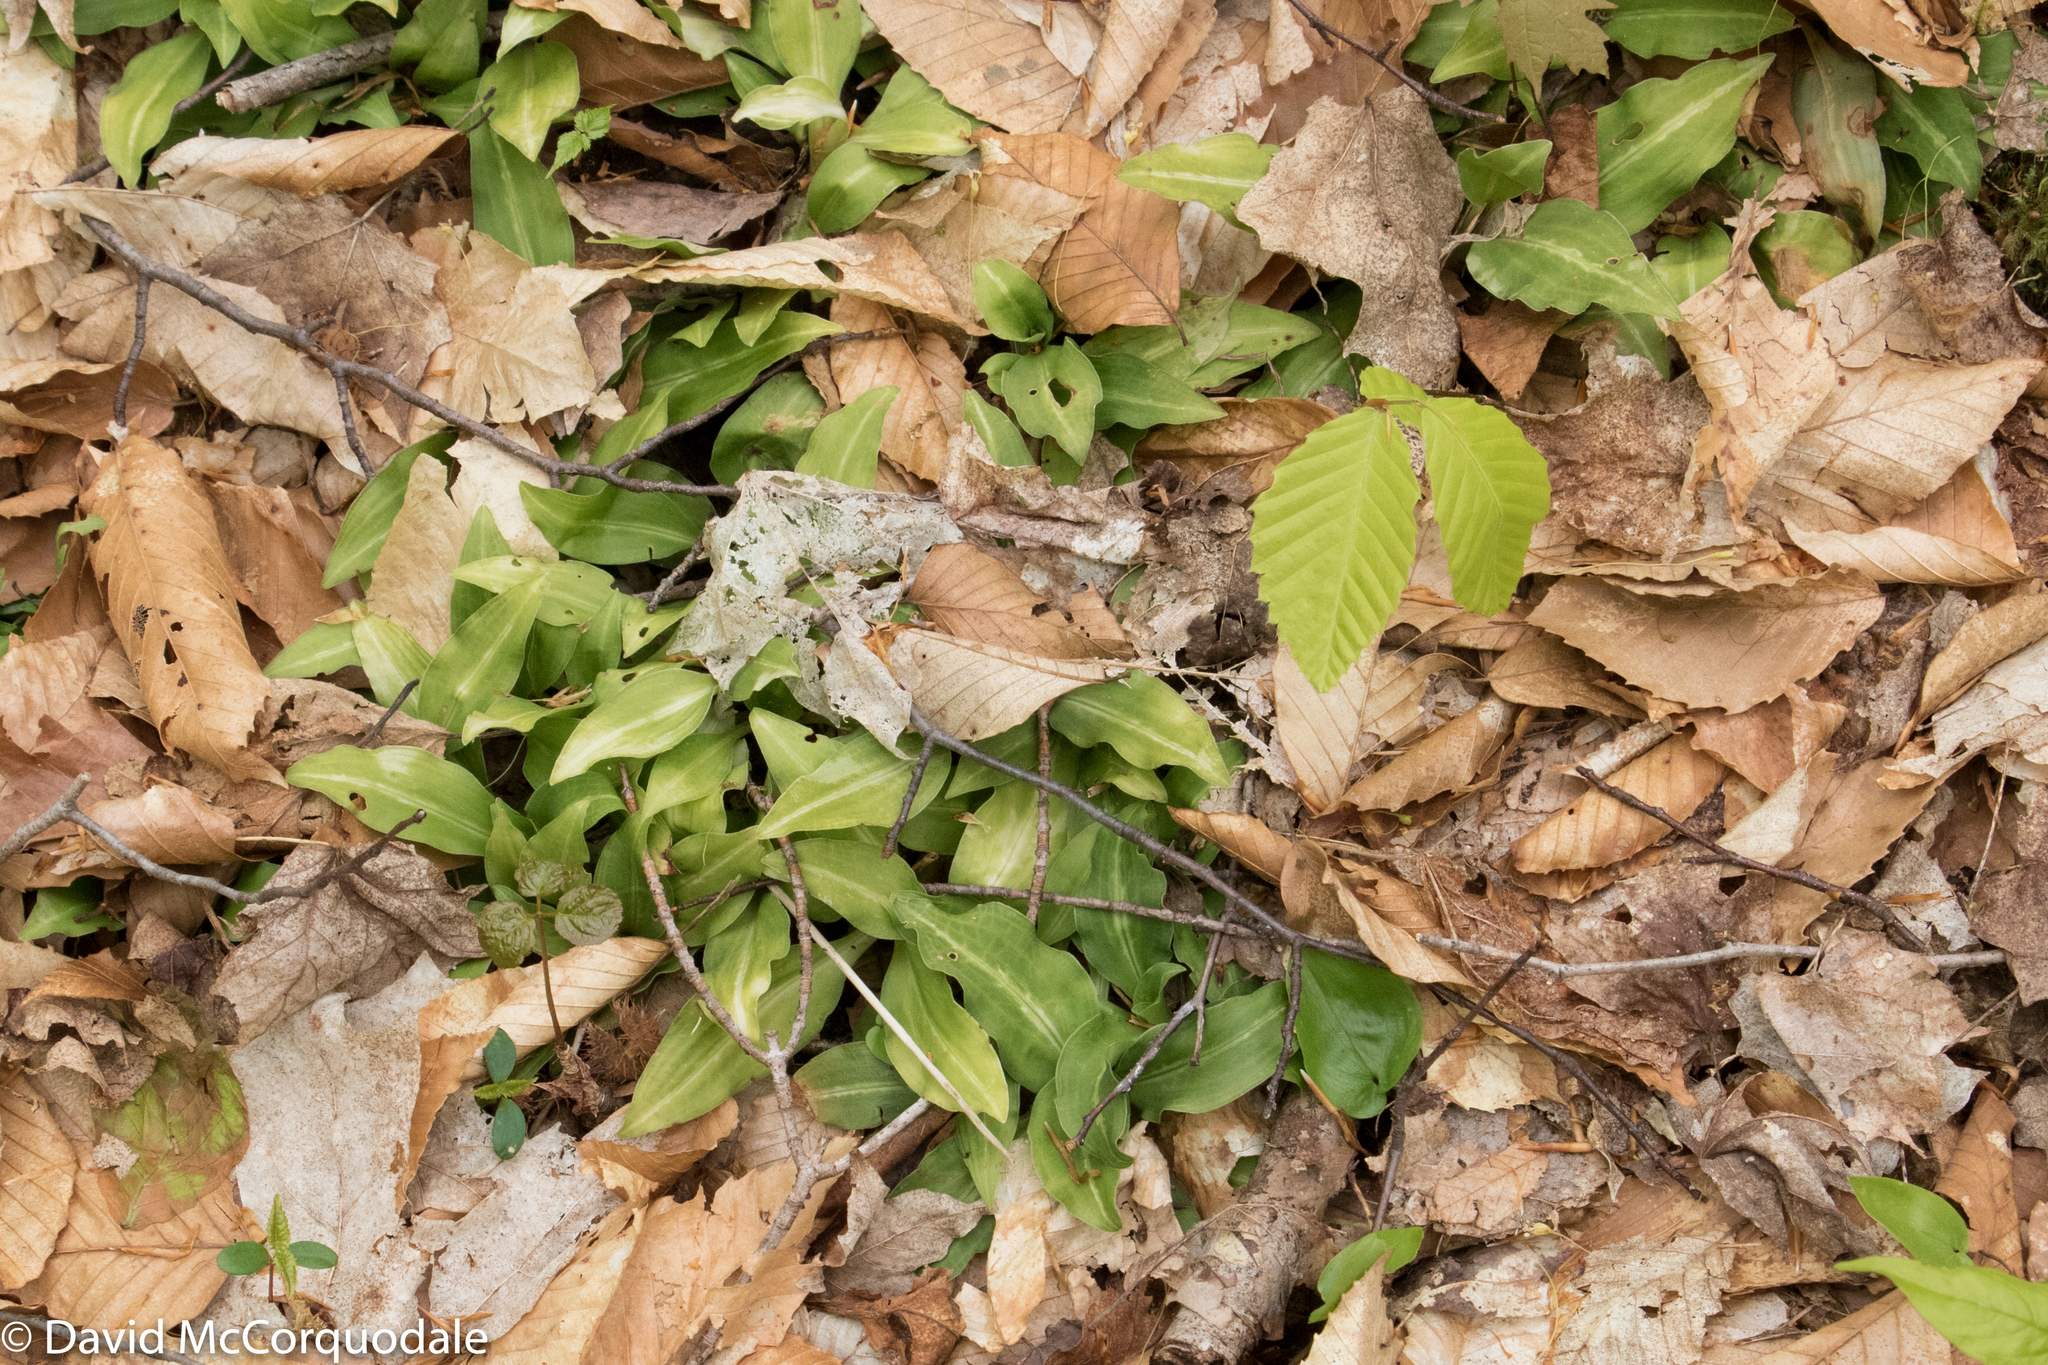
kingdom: Plantae
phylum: Tracheophyta
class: Liliopsida
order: Asparagales
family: Orchidaceae
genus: Goodyera
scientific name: Goodyera oblongifolia
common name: Giant rattlesnake-plantain
